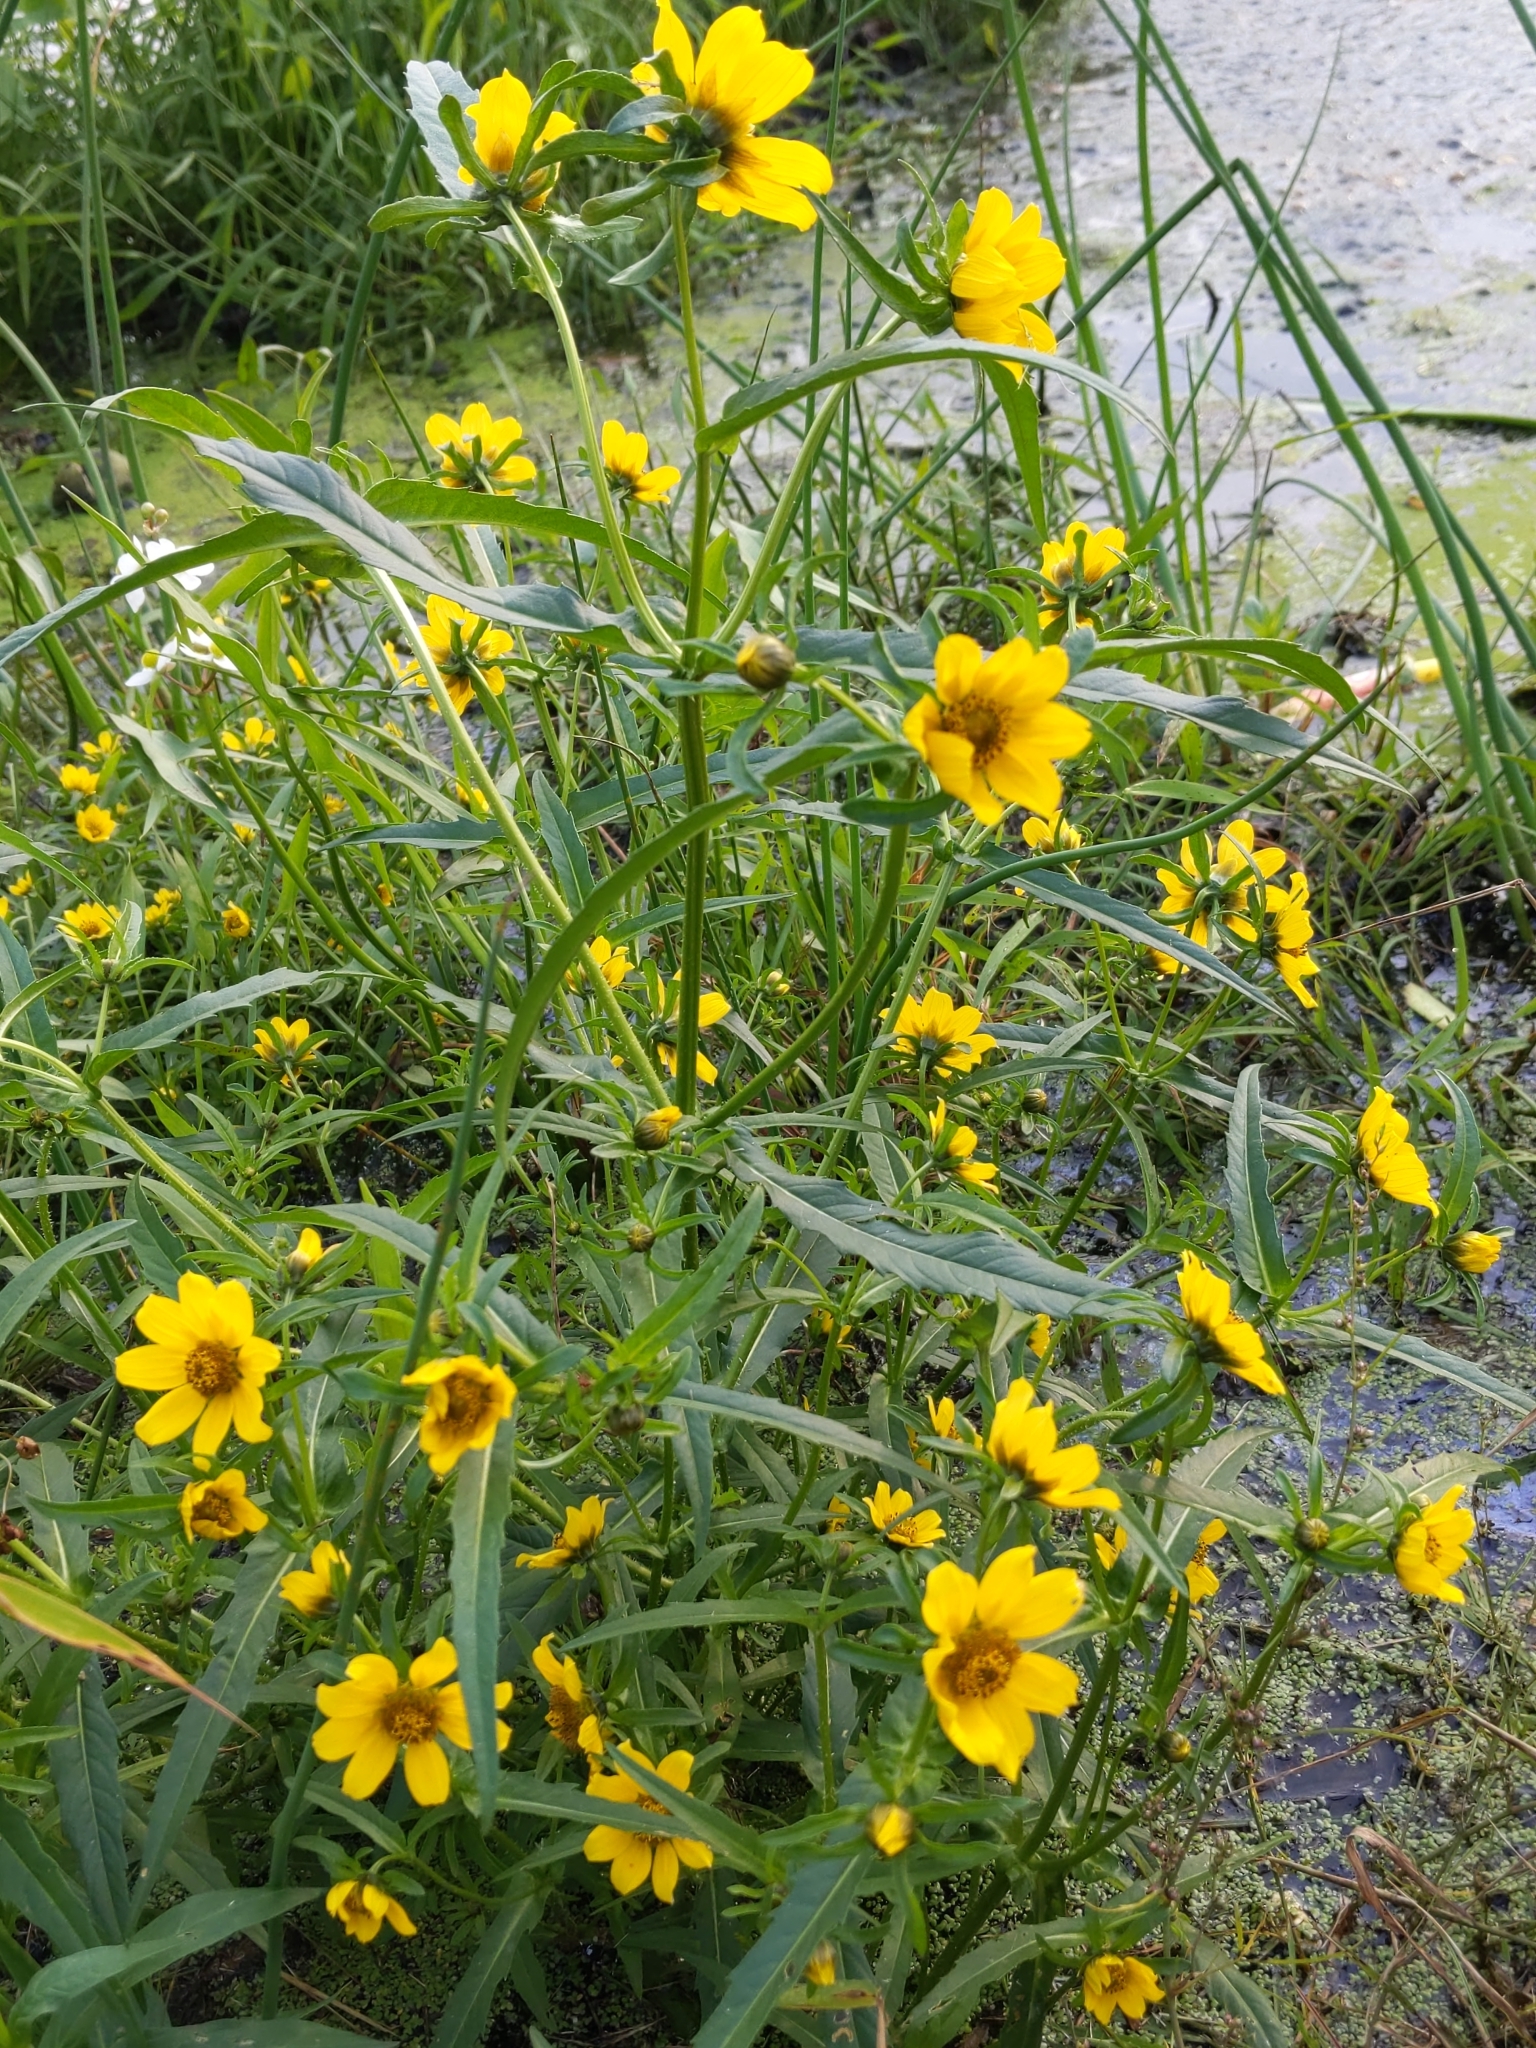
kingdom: Plantae
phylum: Tracheophyta
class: Magnoliopsida
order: Asterales
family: Asteraceae
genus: Bidens
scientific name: Bidens cernua
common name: Nodding bur-marigold
